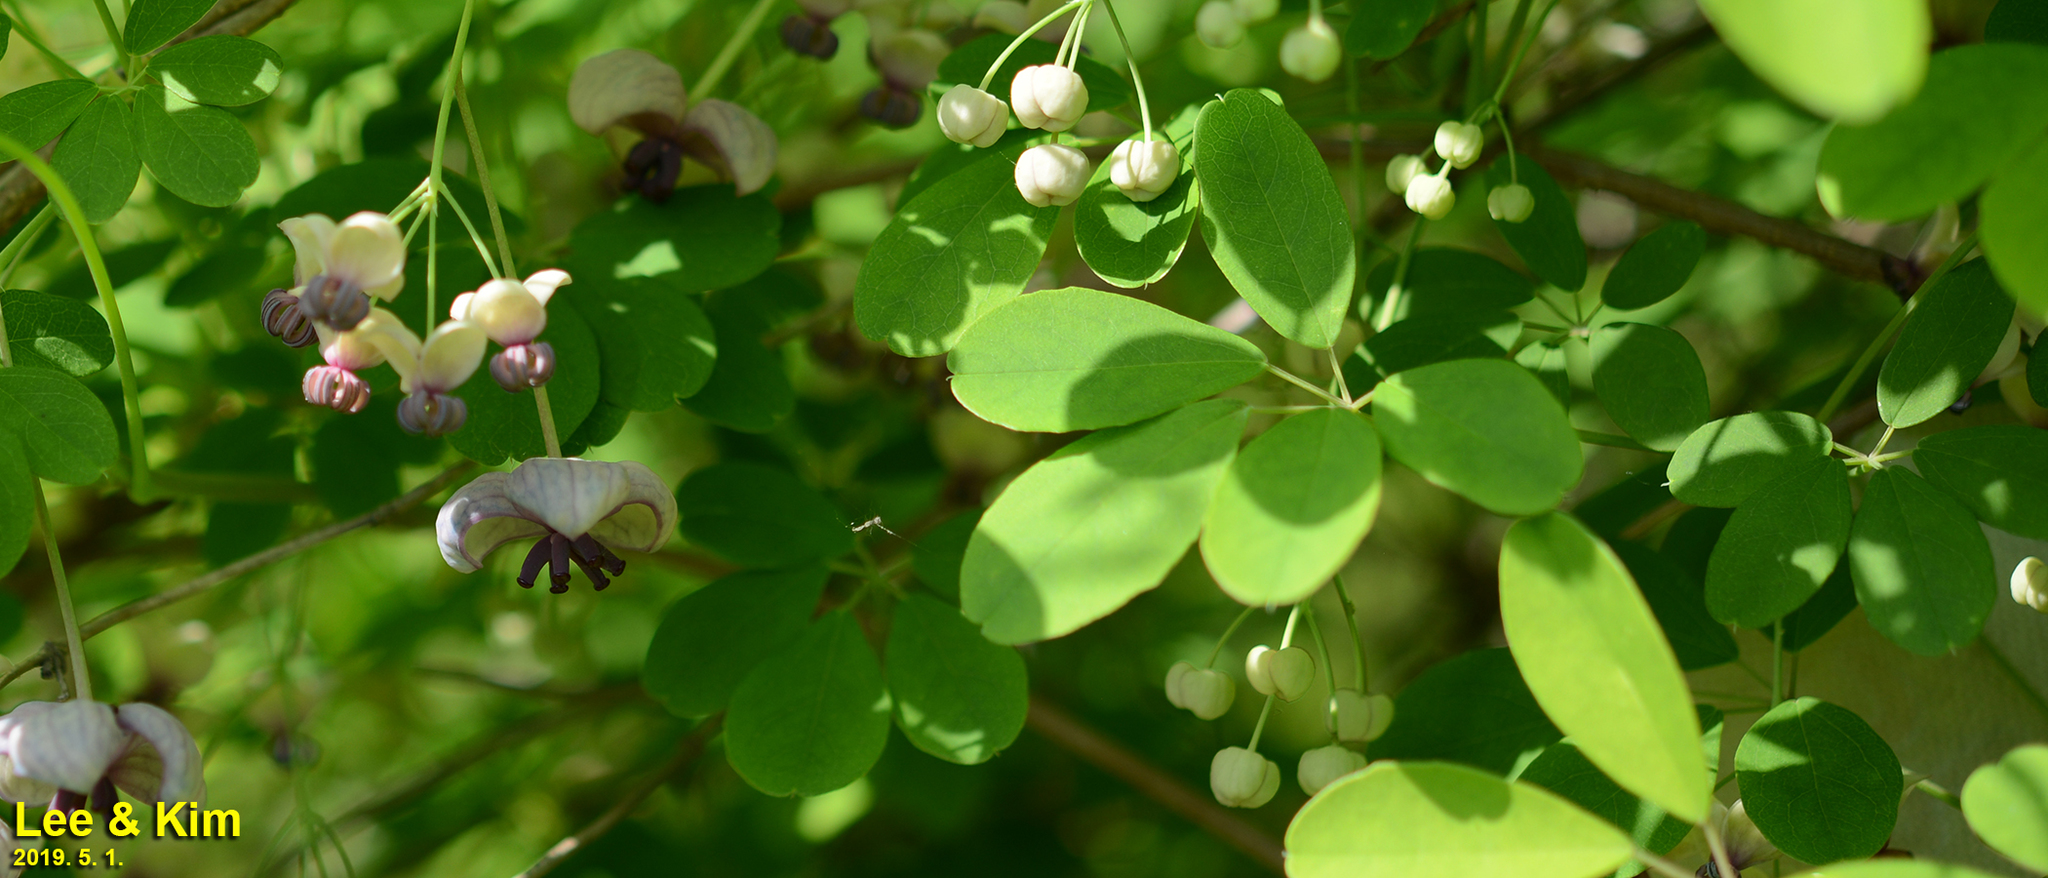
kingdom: Plantae
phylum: Tracheophyta
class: Magnoliopsida
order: Ranunculales
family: Lardizabalaceae
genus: Akebia
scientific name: Akebia quinata
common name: Five-leaf akebia
